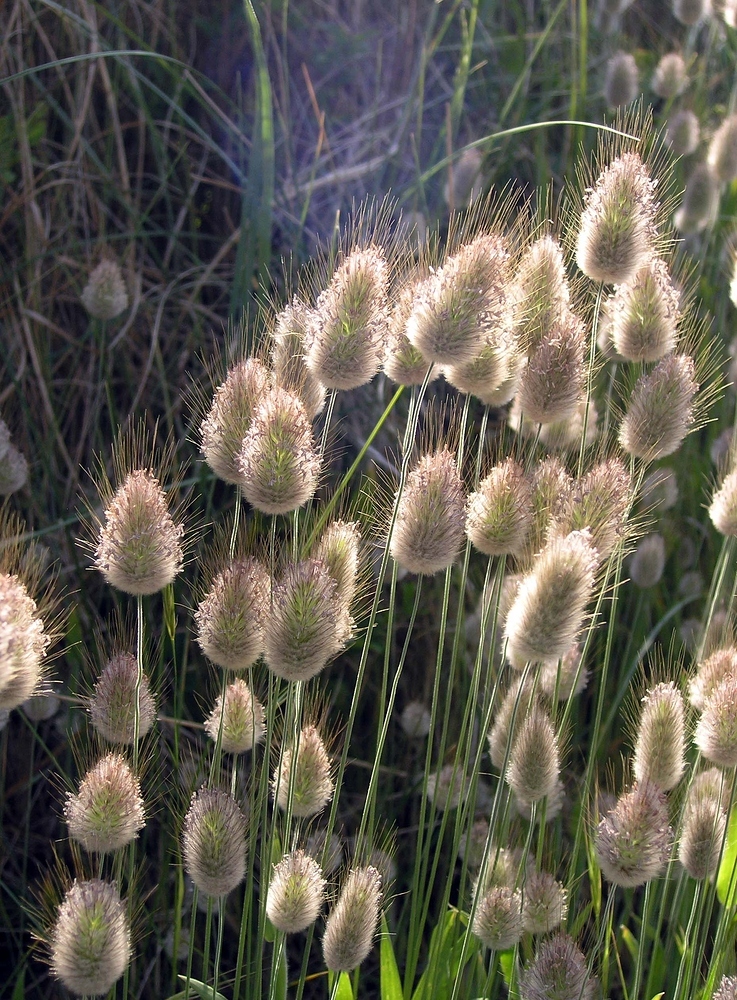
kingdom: Plantae
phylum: Tracheophyta
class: Liliopsida
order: Poales
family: Poaceae
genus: Lagurus
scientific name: Lagurus ovatus
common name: Hare's-tail
